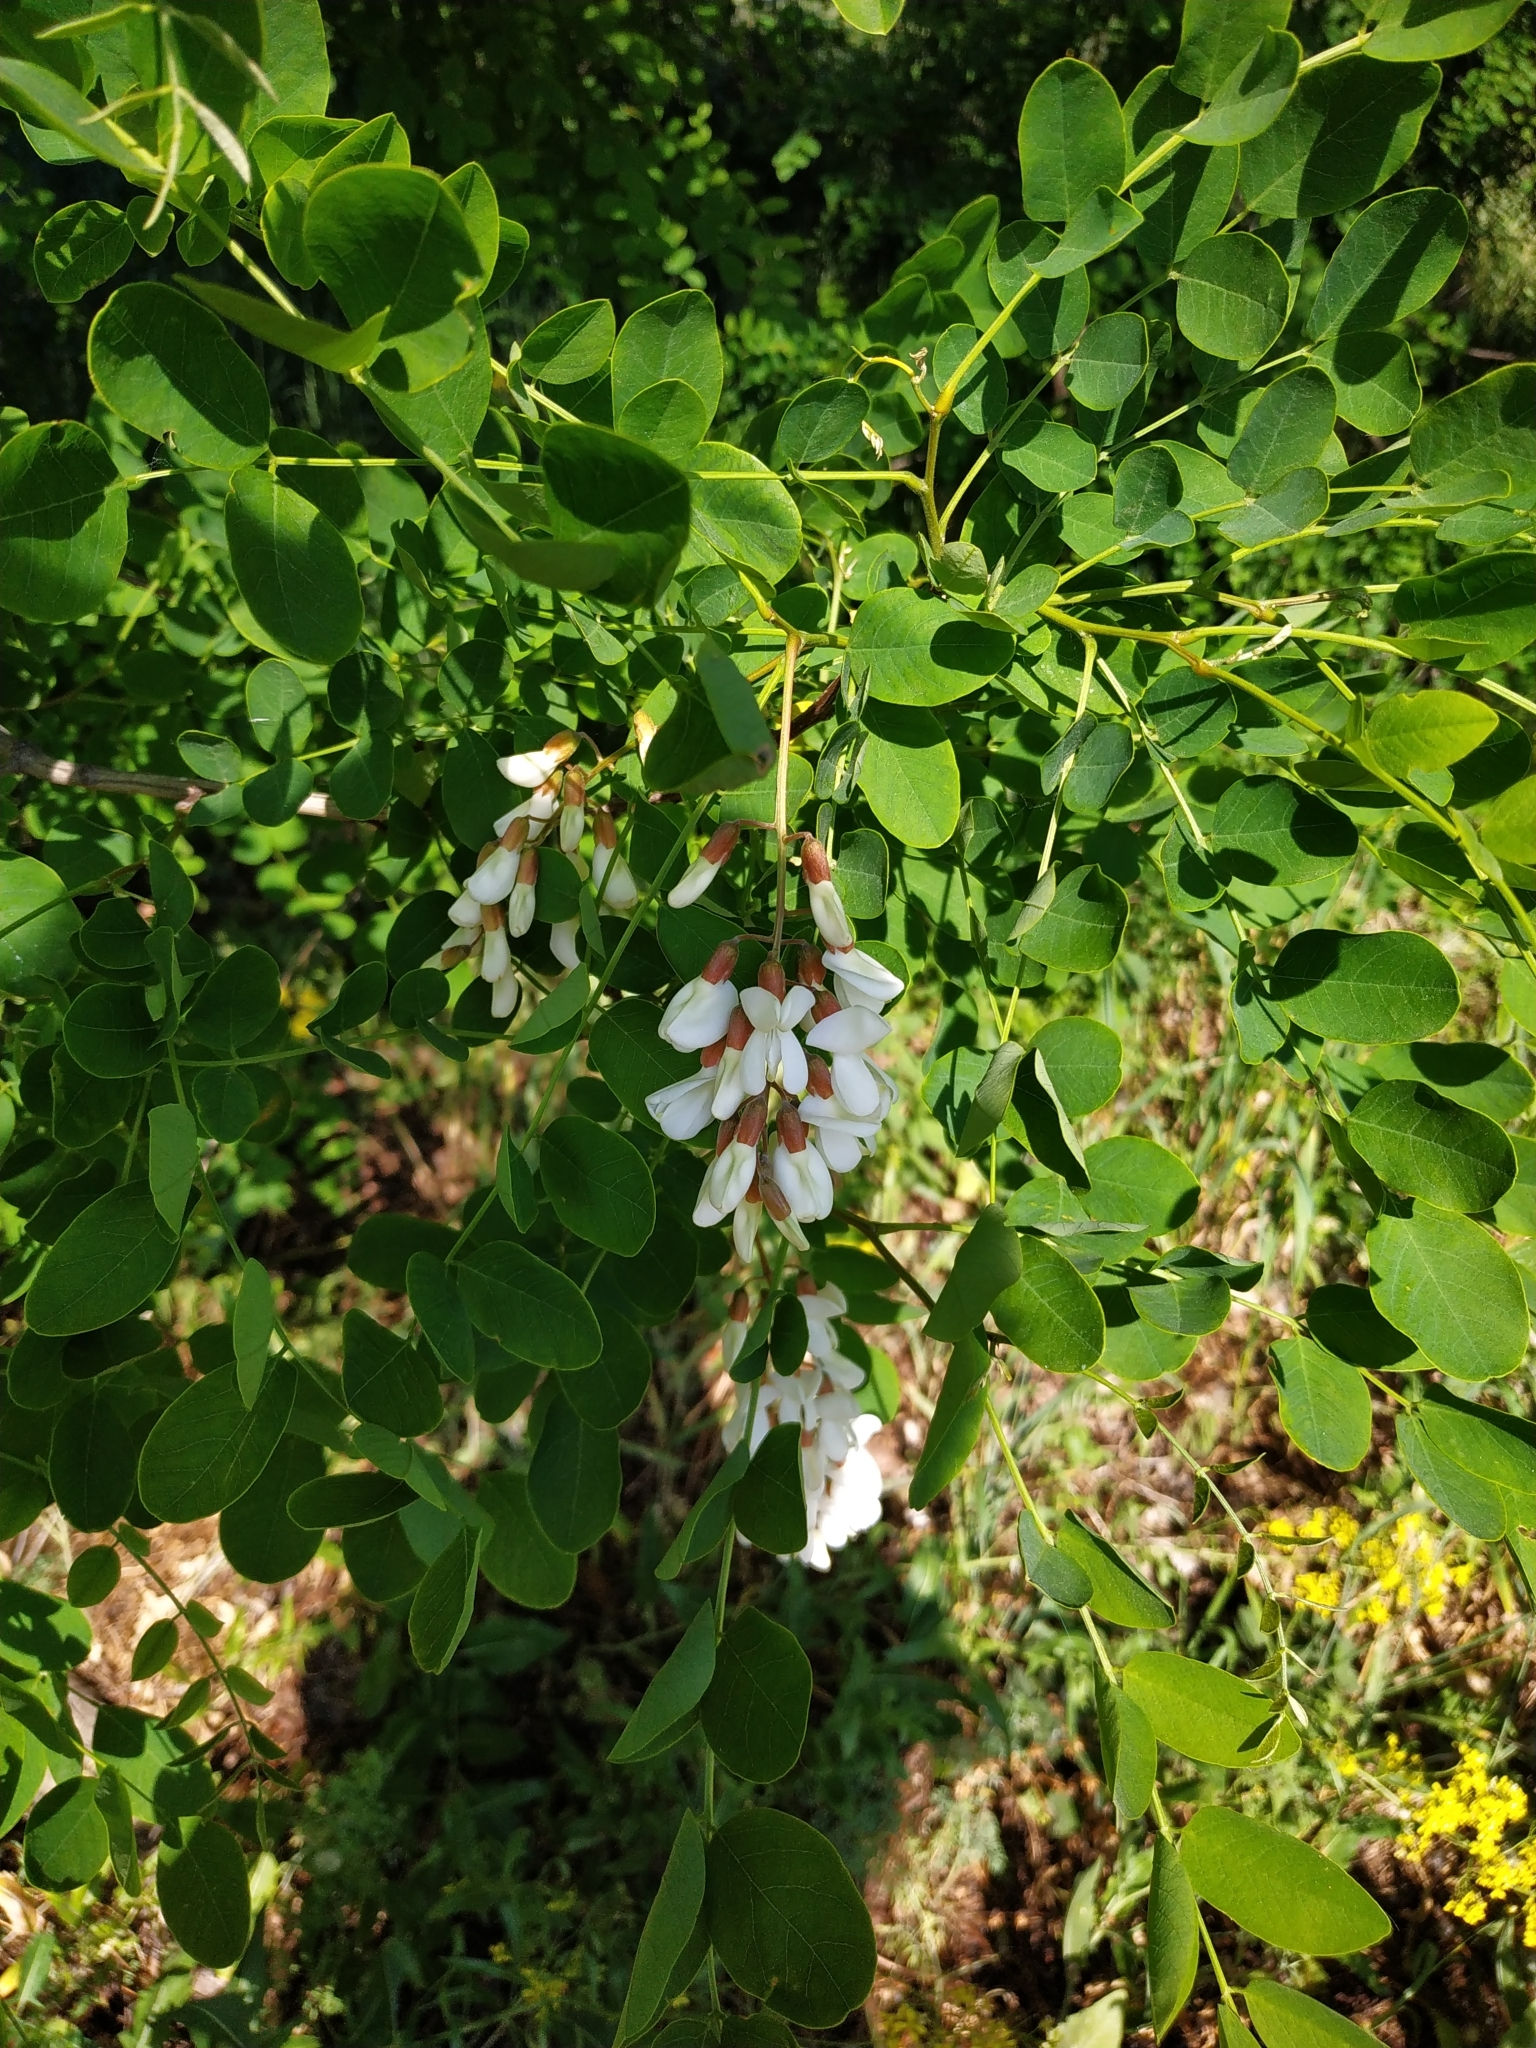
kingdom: Plantae
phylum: Tracheophyta
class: Magnoliopsida
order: Fabales
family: Fabaceae
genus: Robinia
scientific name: Robinia pseudoacacia
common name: Black locust
